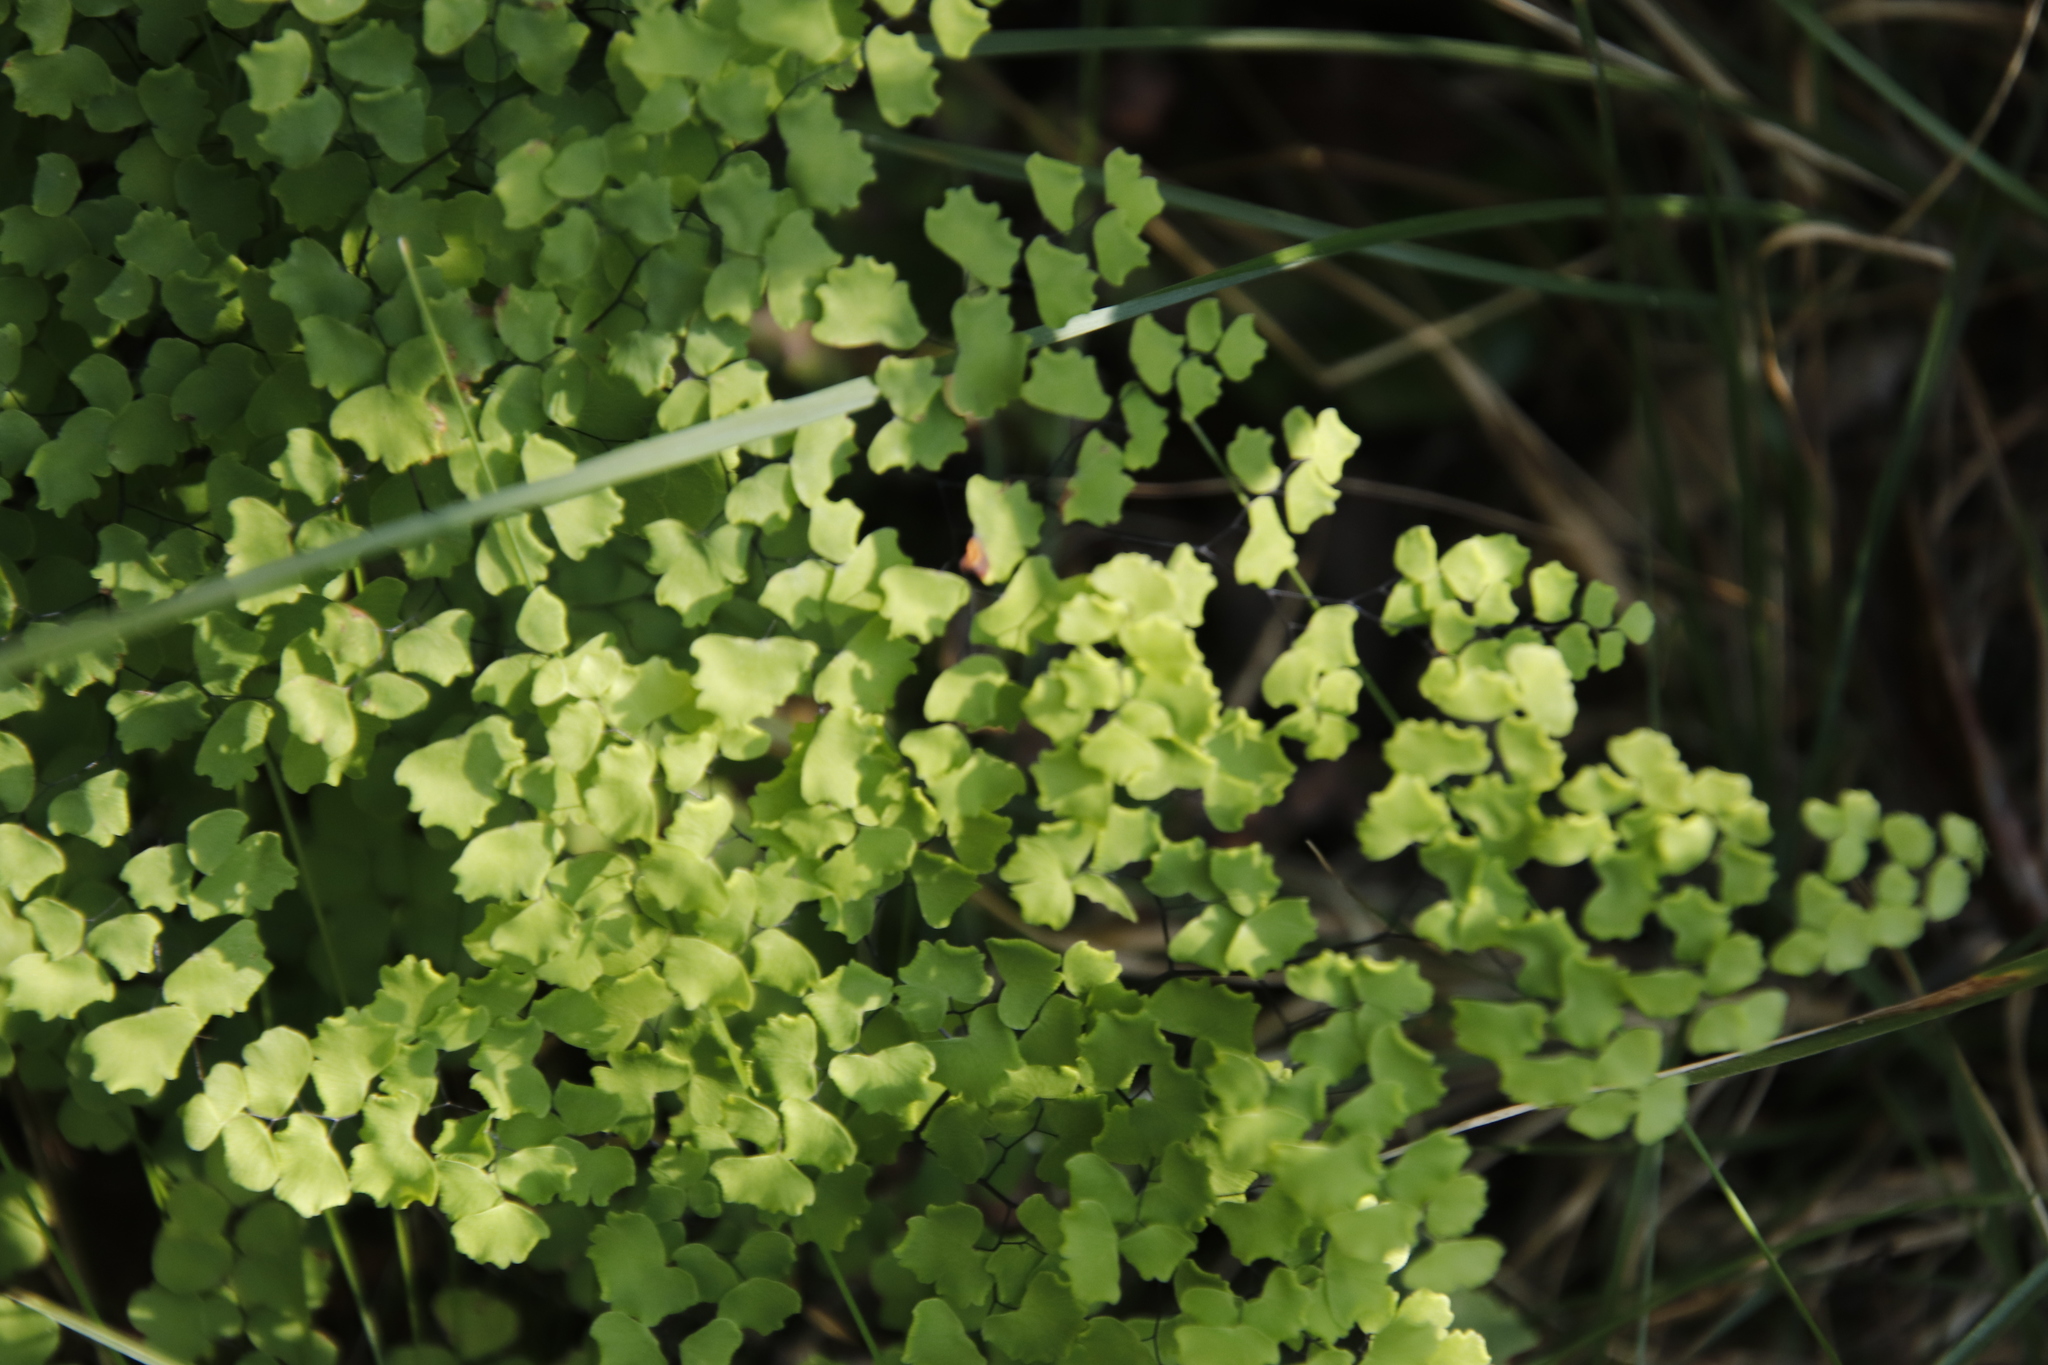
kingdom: Plantae
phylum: Tracheophyta
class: Polypodiopsida
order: Polypodiales
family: Pteridaceae
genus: Adiantum
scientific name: Adiantum poiretii
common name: Mexican maidenhair
